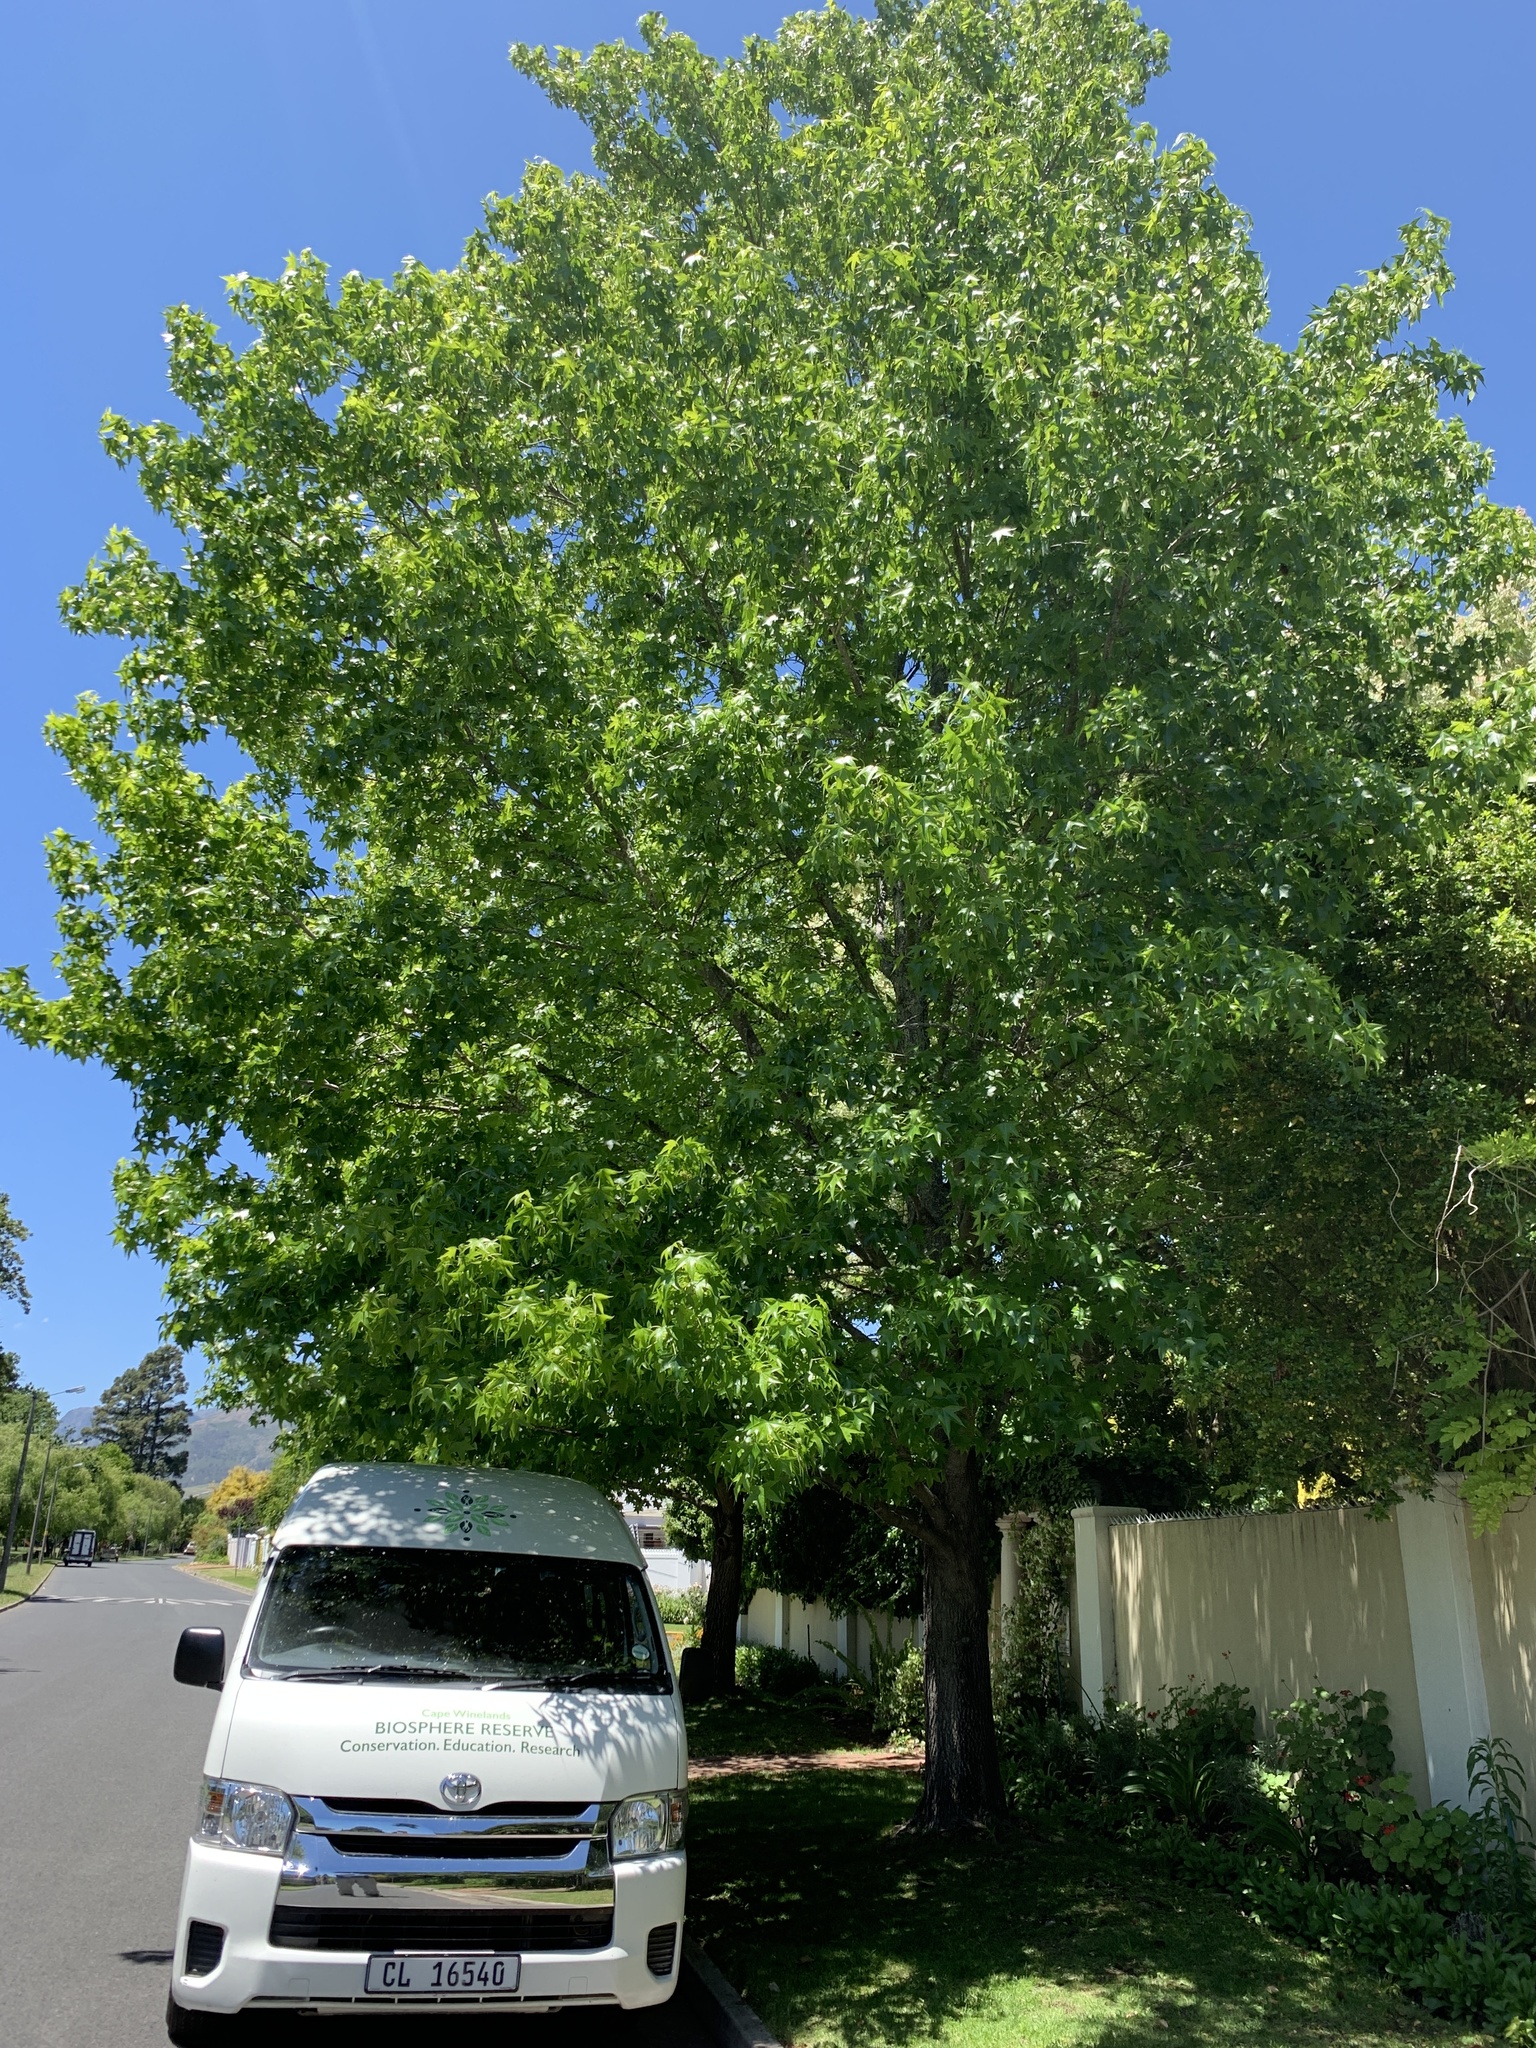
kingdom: Plantae
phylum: Tracheophyta
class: Magnoliopsida
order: Saxifragales
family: Altingiaceae
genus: Liquidambar
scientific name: Liquidambar styraciflua
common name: Sweet gum
